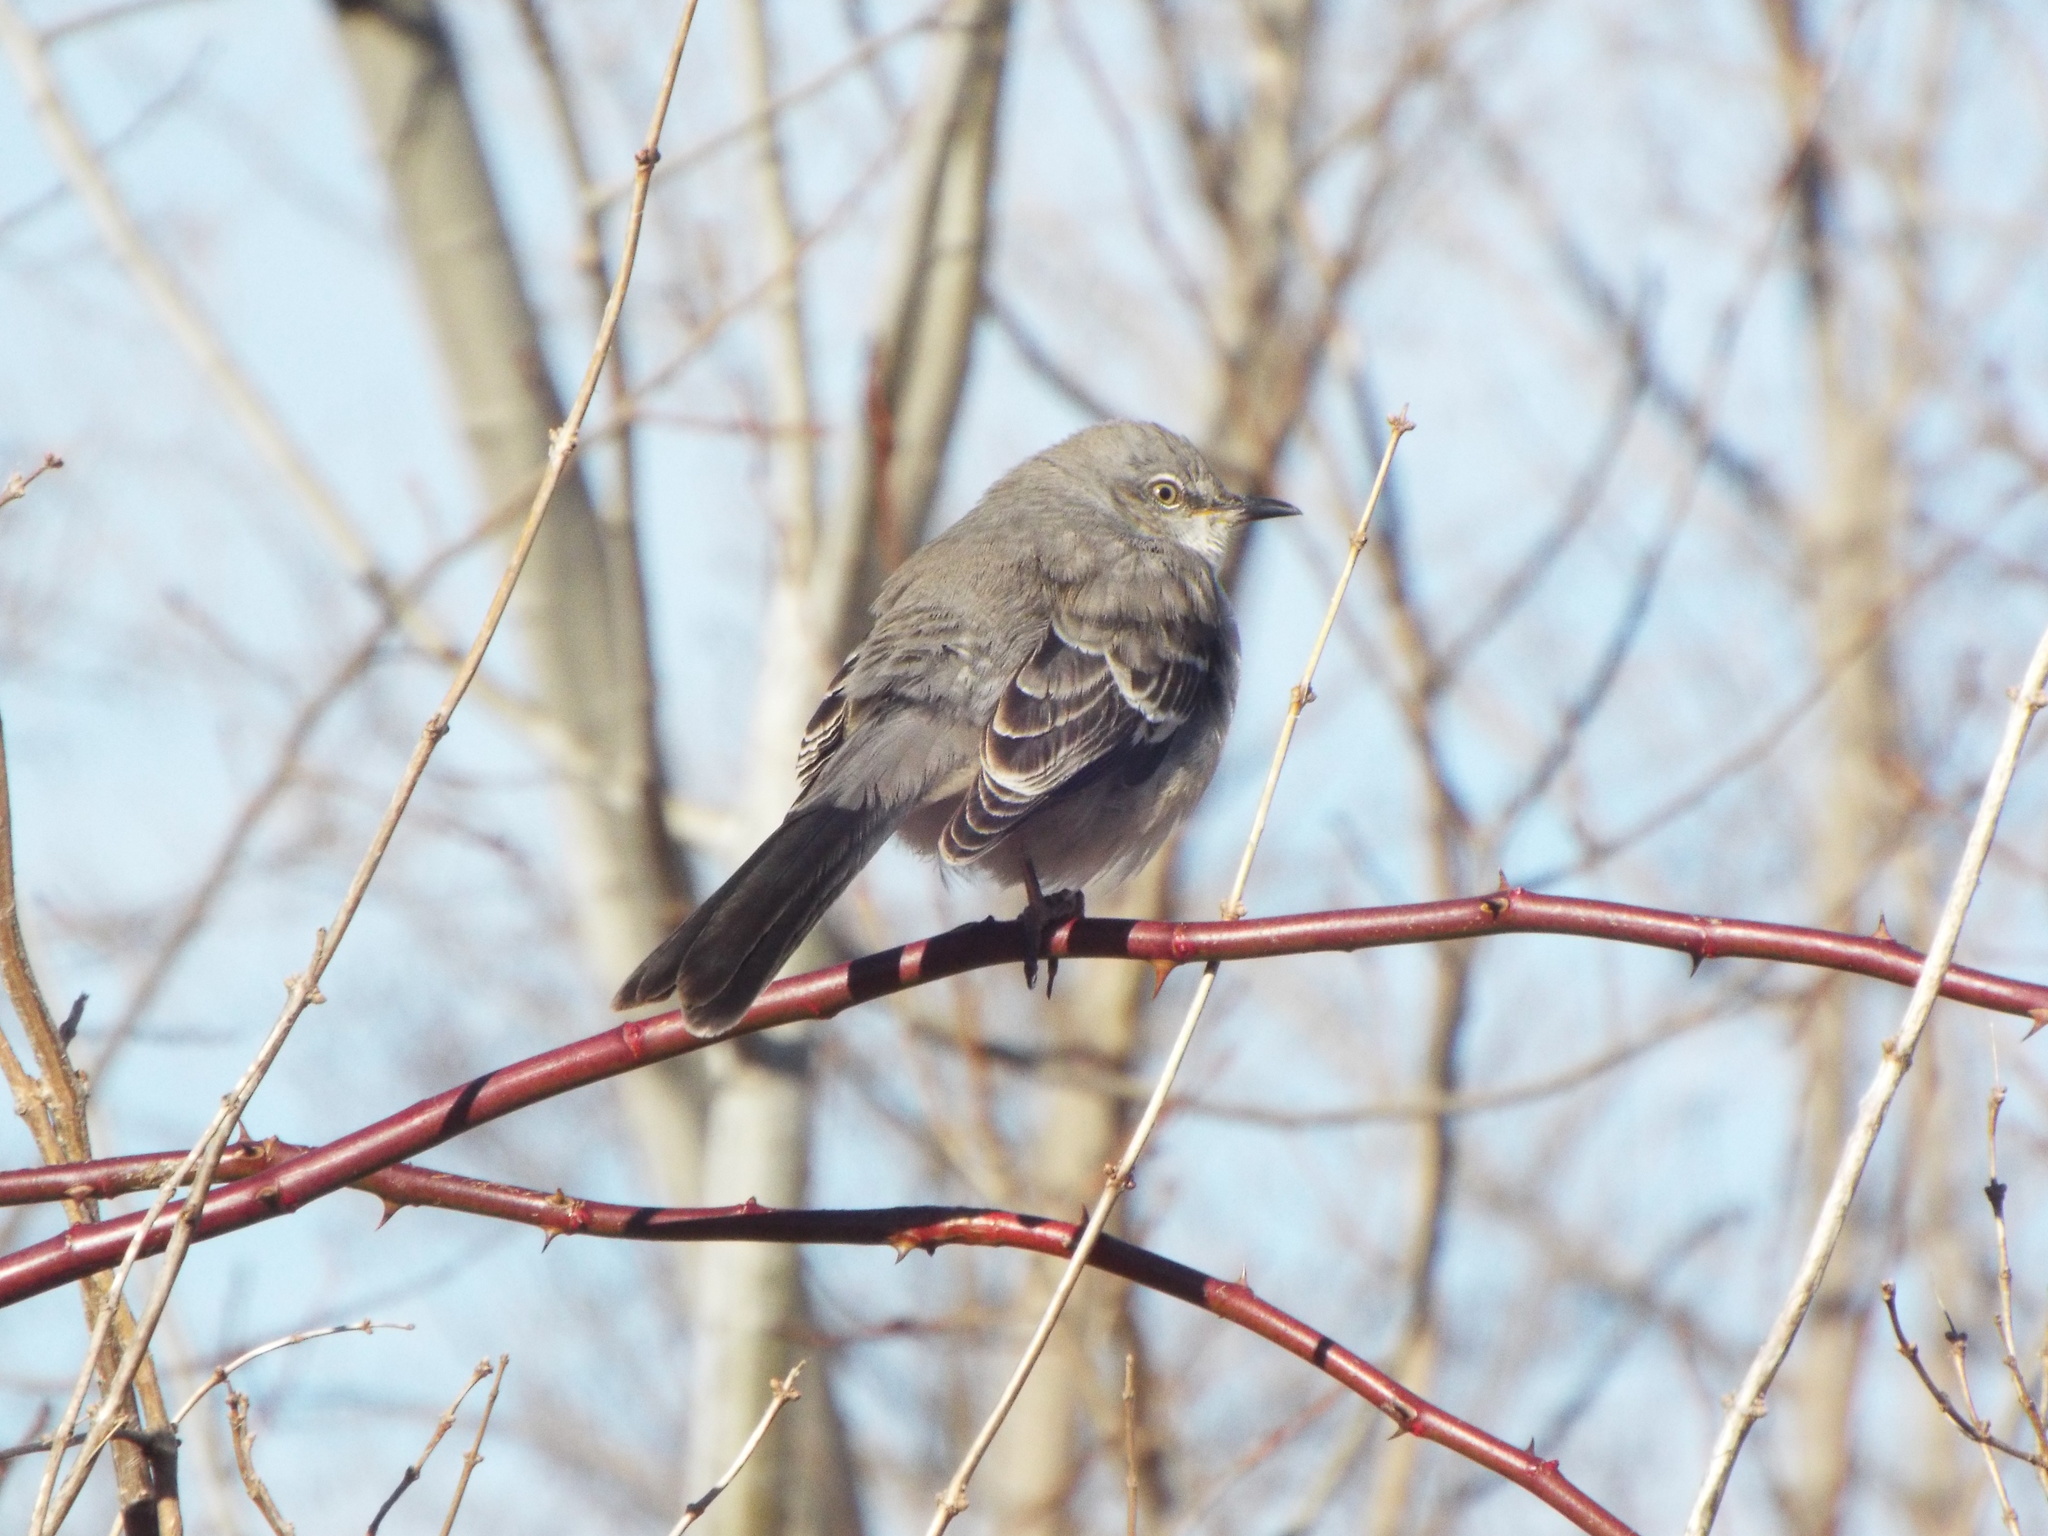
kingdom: Animalia
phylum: Chordata
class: Aves
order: Passeriformes
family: Mimidae
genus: Mimus
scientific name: Mimus polyglottos
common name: Northern mockingbird
